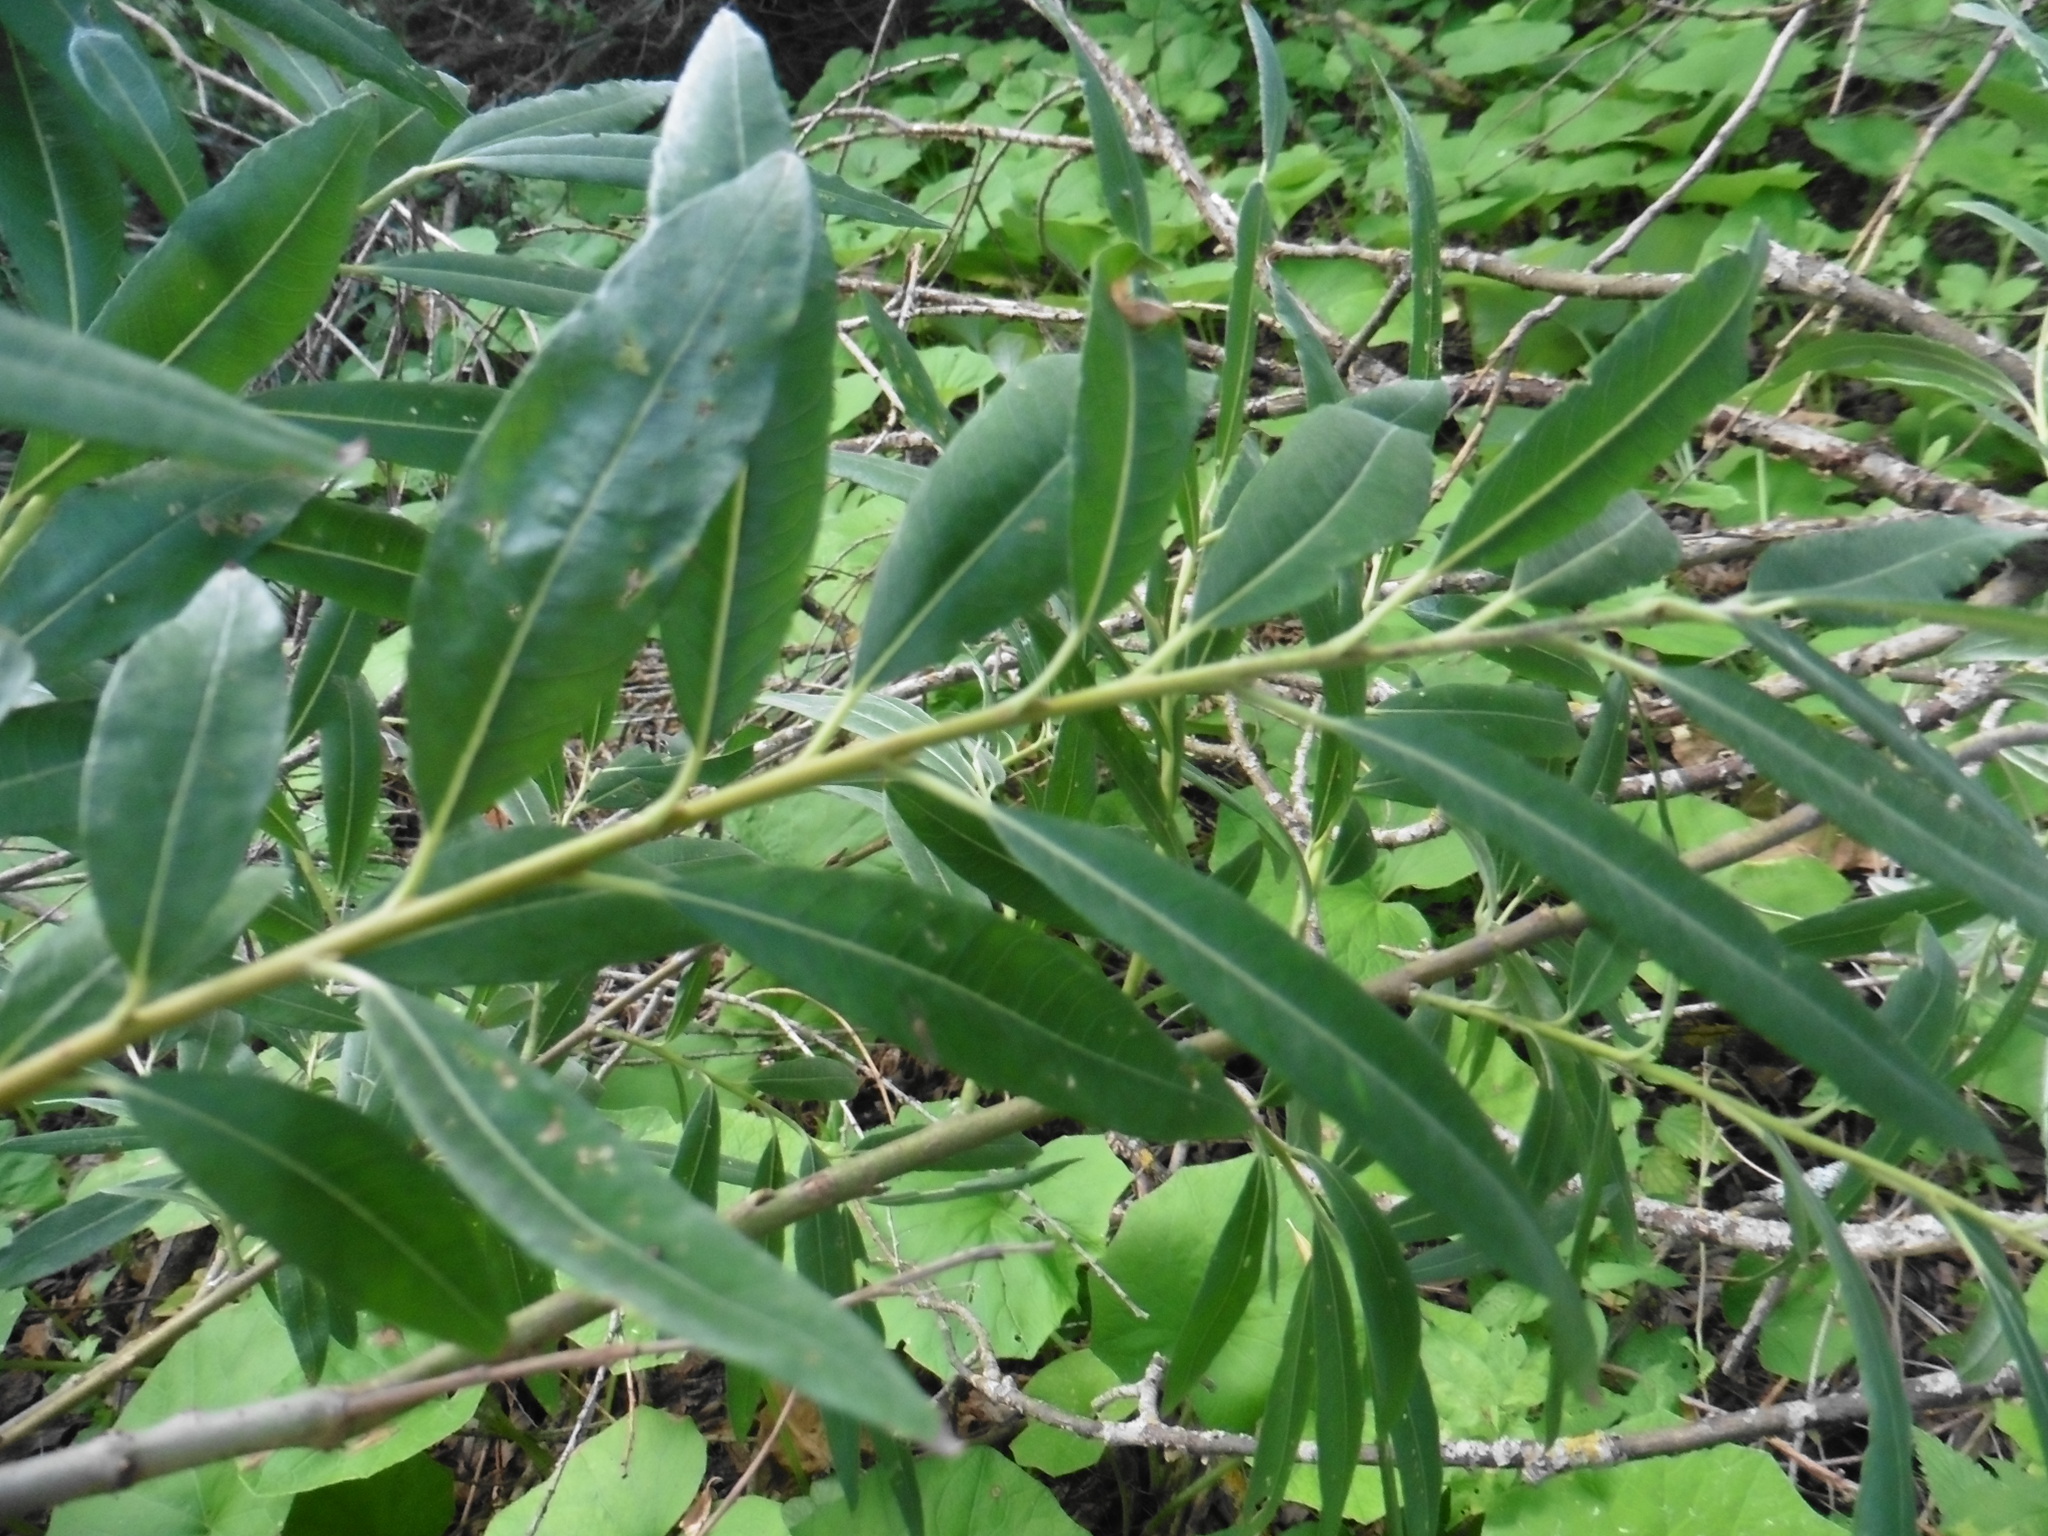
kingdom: Plantae
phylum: Tracheophyta
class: Magnoliopsida
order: Malpighiales
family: Salicaceae
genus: Salix
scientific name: Salix gmelinii
